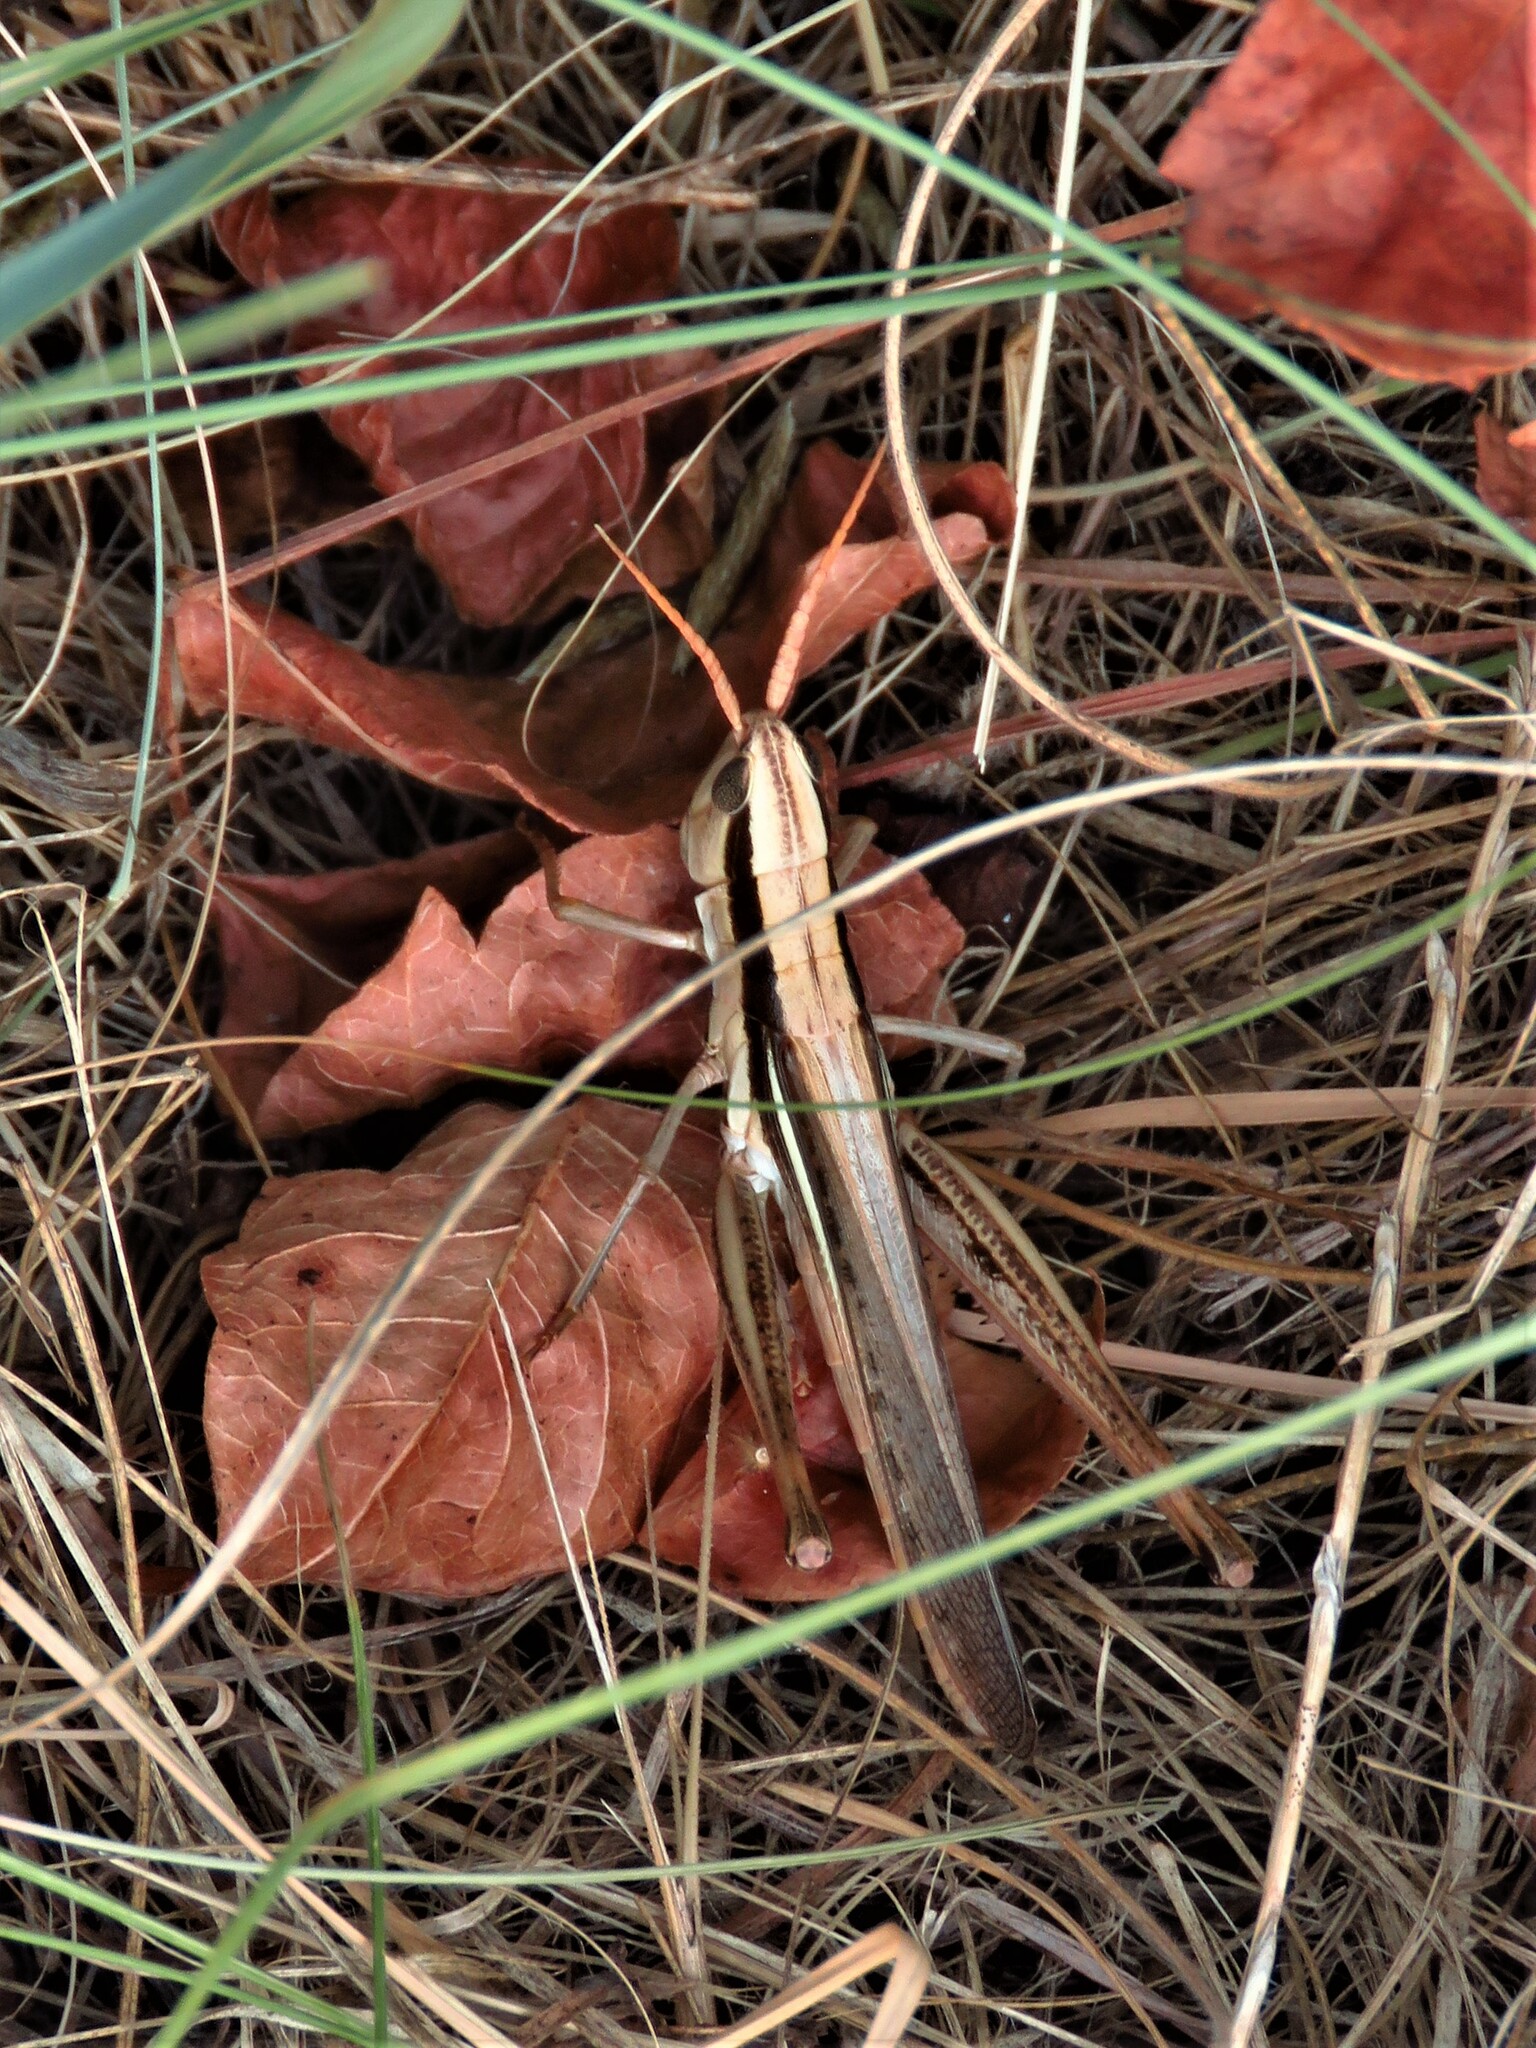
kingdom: Animalia
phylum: Arthropoda
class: Insecta
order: Orthoptera
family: Acrididae
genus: Mermiria
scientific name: Mermiria bivittata
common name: Two-striped mermiria grasshopper
